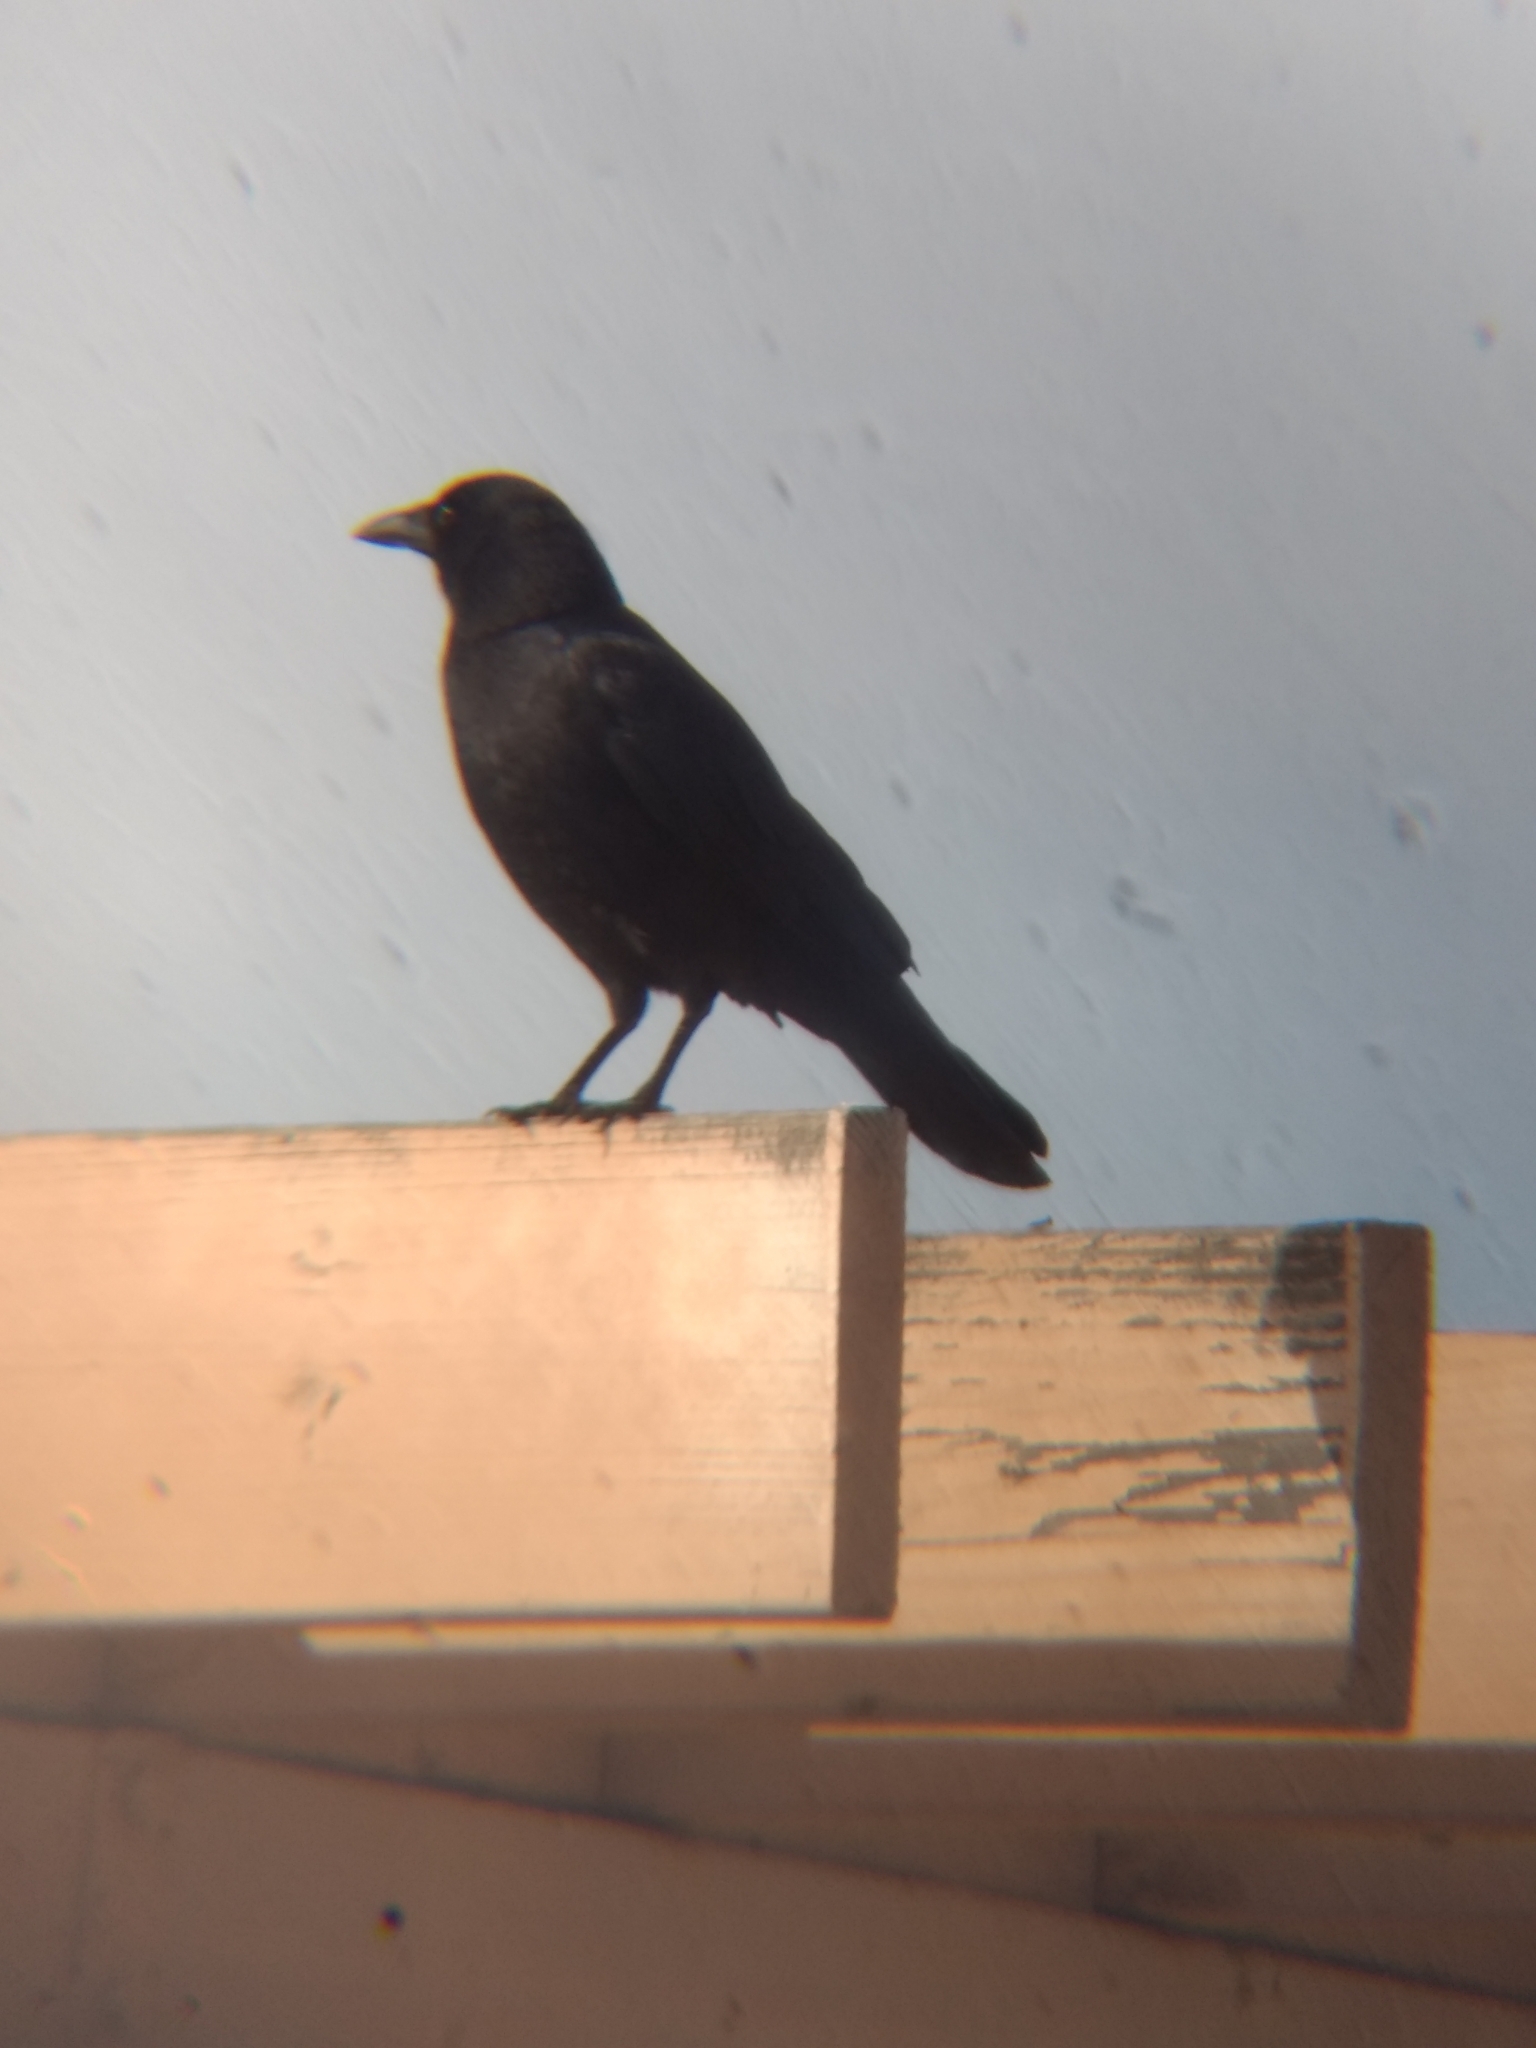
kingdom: Animalia
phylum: Chordata
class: Aves
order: Passeriformes
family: Corvidae
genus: Corvus
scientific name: Corvus brachyrhynchos
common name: American crow
